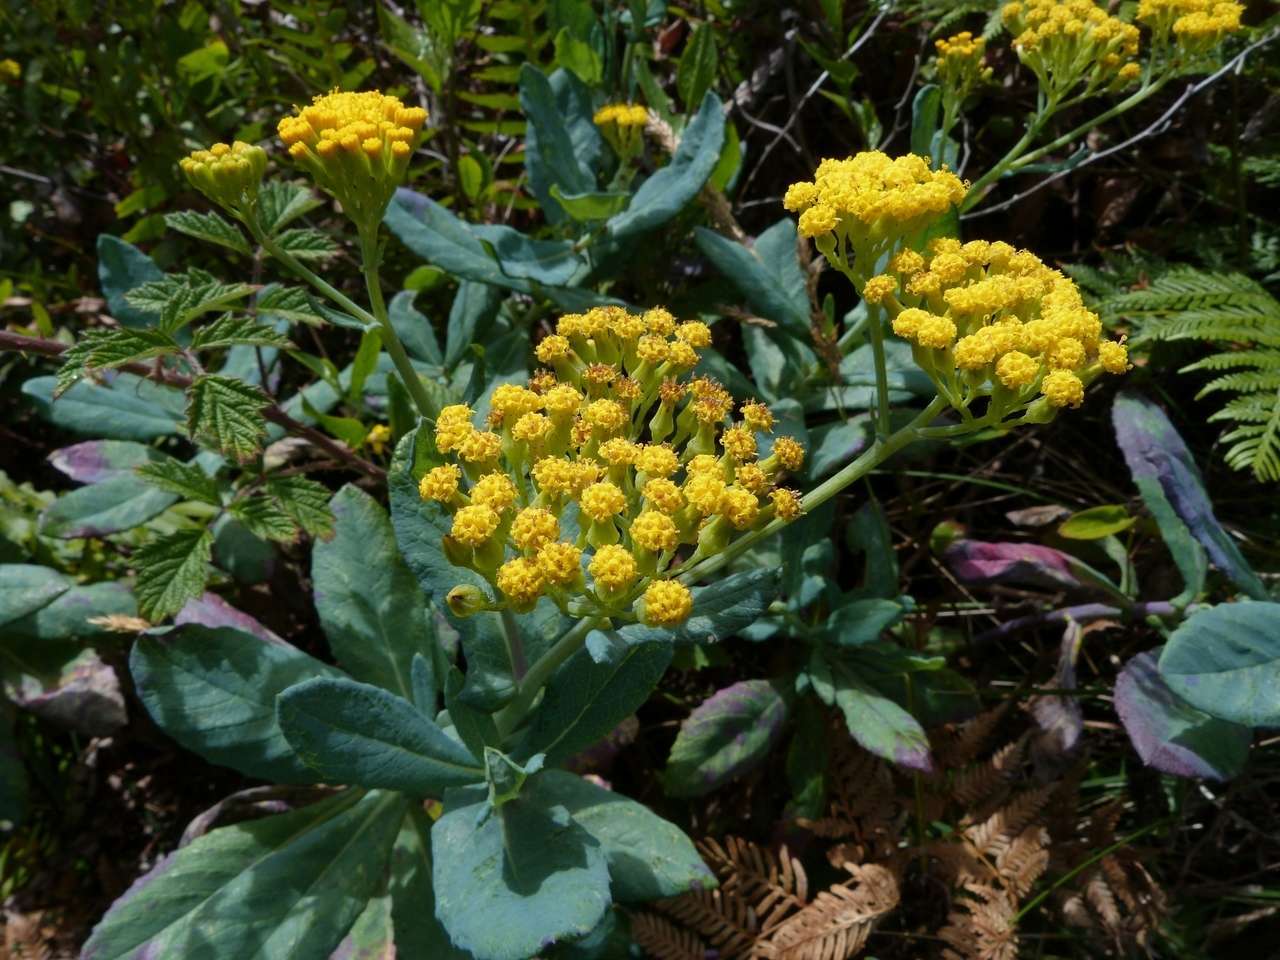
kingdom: Plantae
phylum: Tracheophyta
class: Magnoliopsida
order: Asterales
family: Asteraceae
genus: Senecio
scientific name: Senecio odoratus
